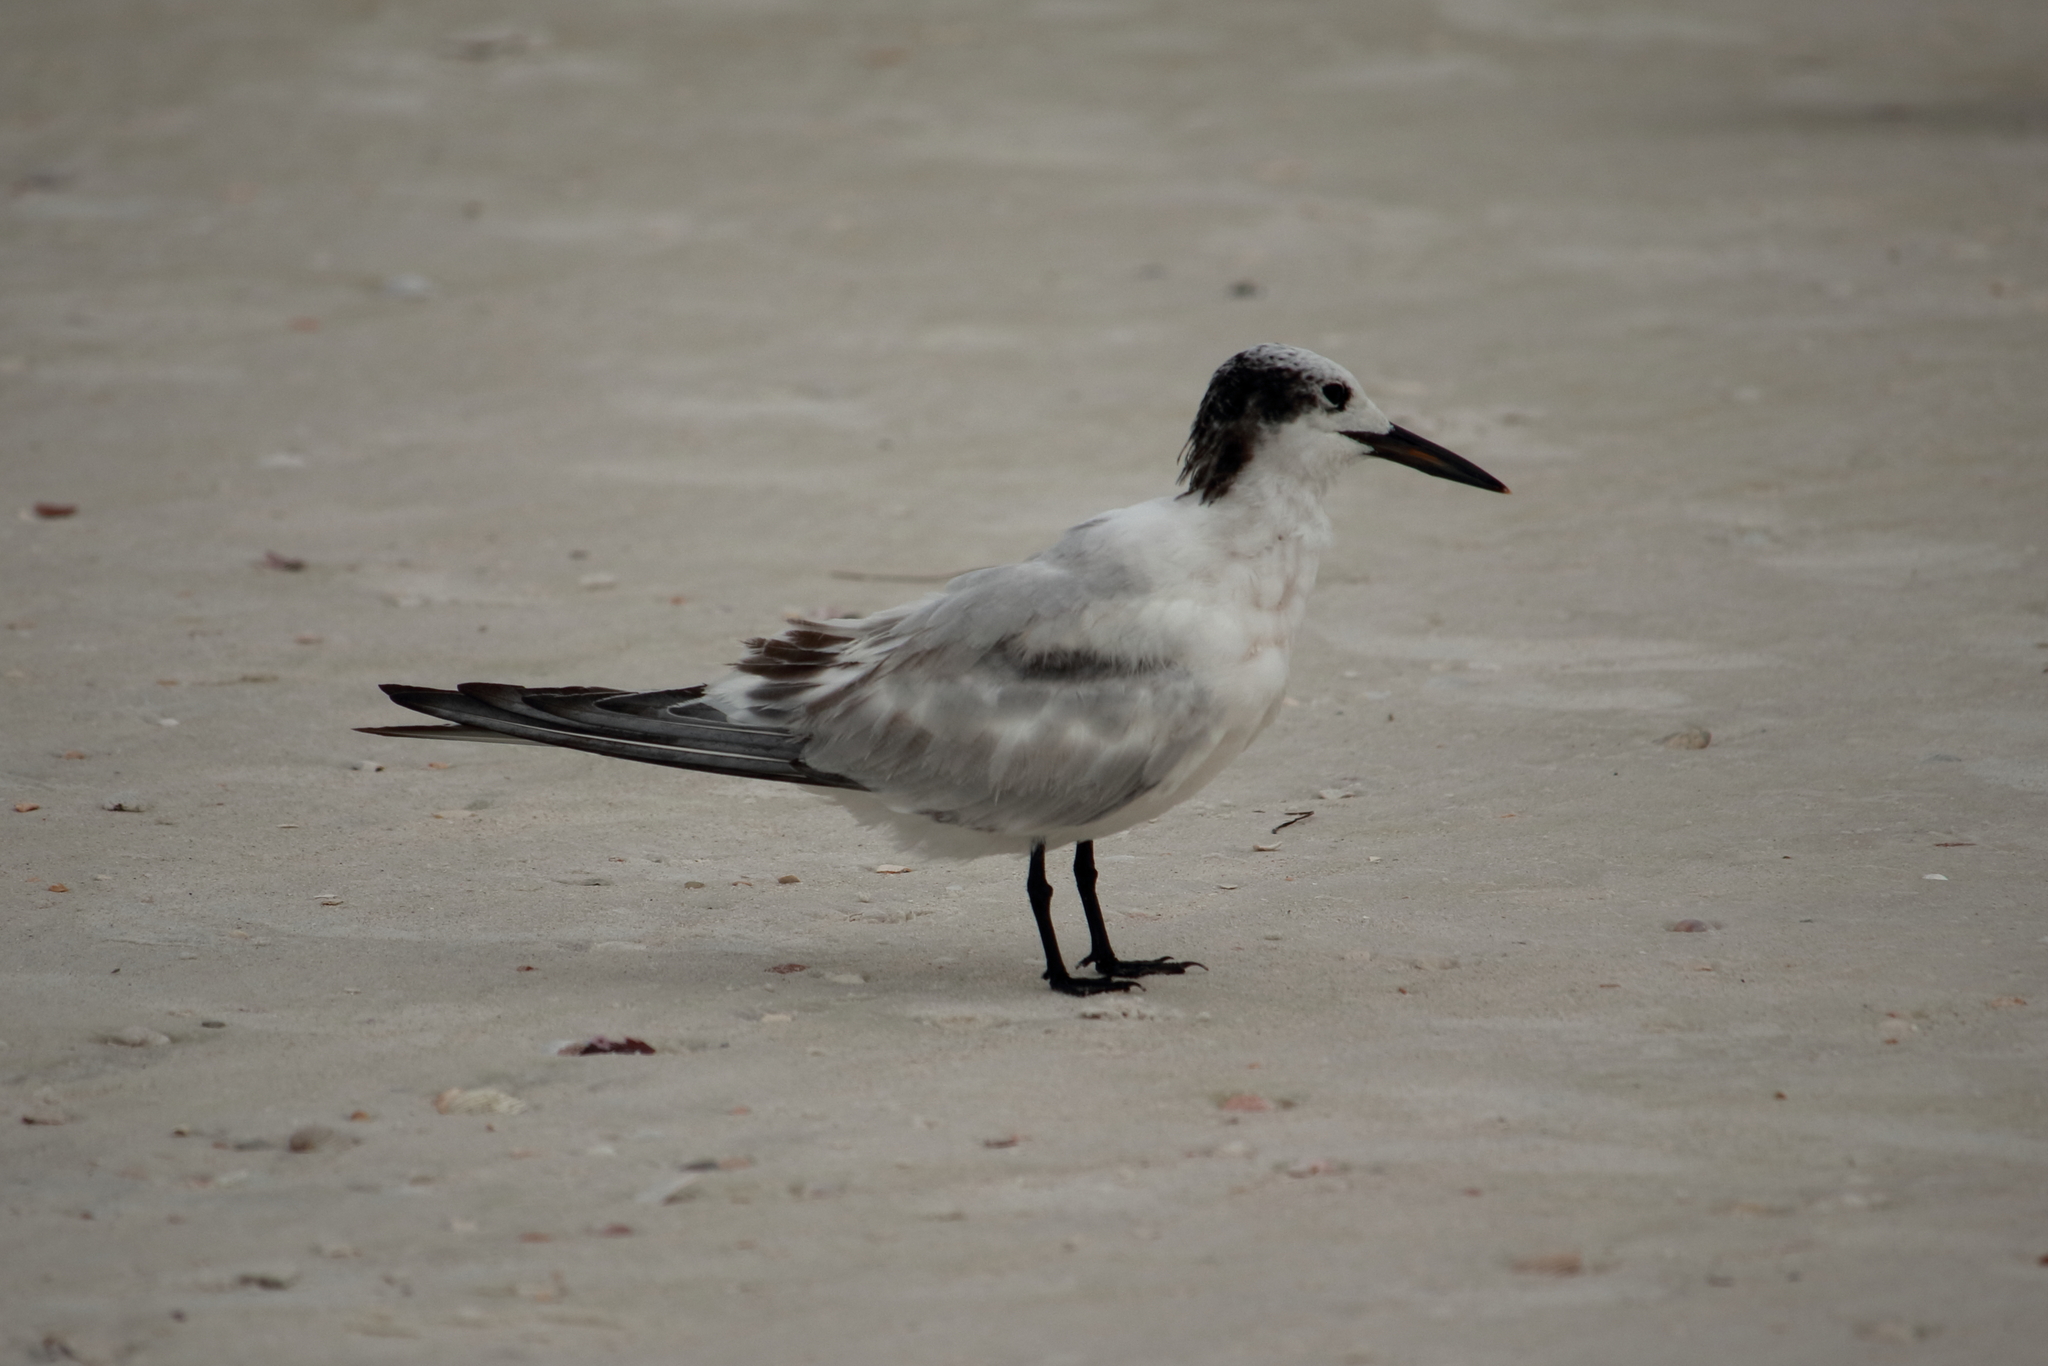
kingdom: Animalia
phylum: Chordata
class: Aves
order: Charadriiformes
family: Laridae
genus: Sterna
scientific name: Sterna hirundo
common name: Common tern
